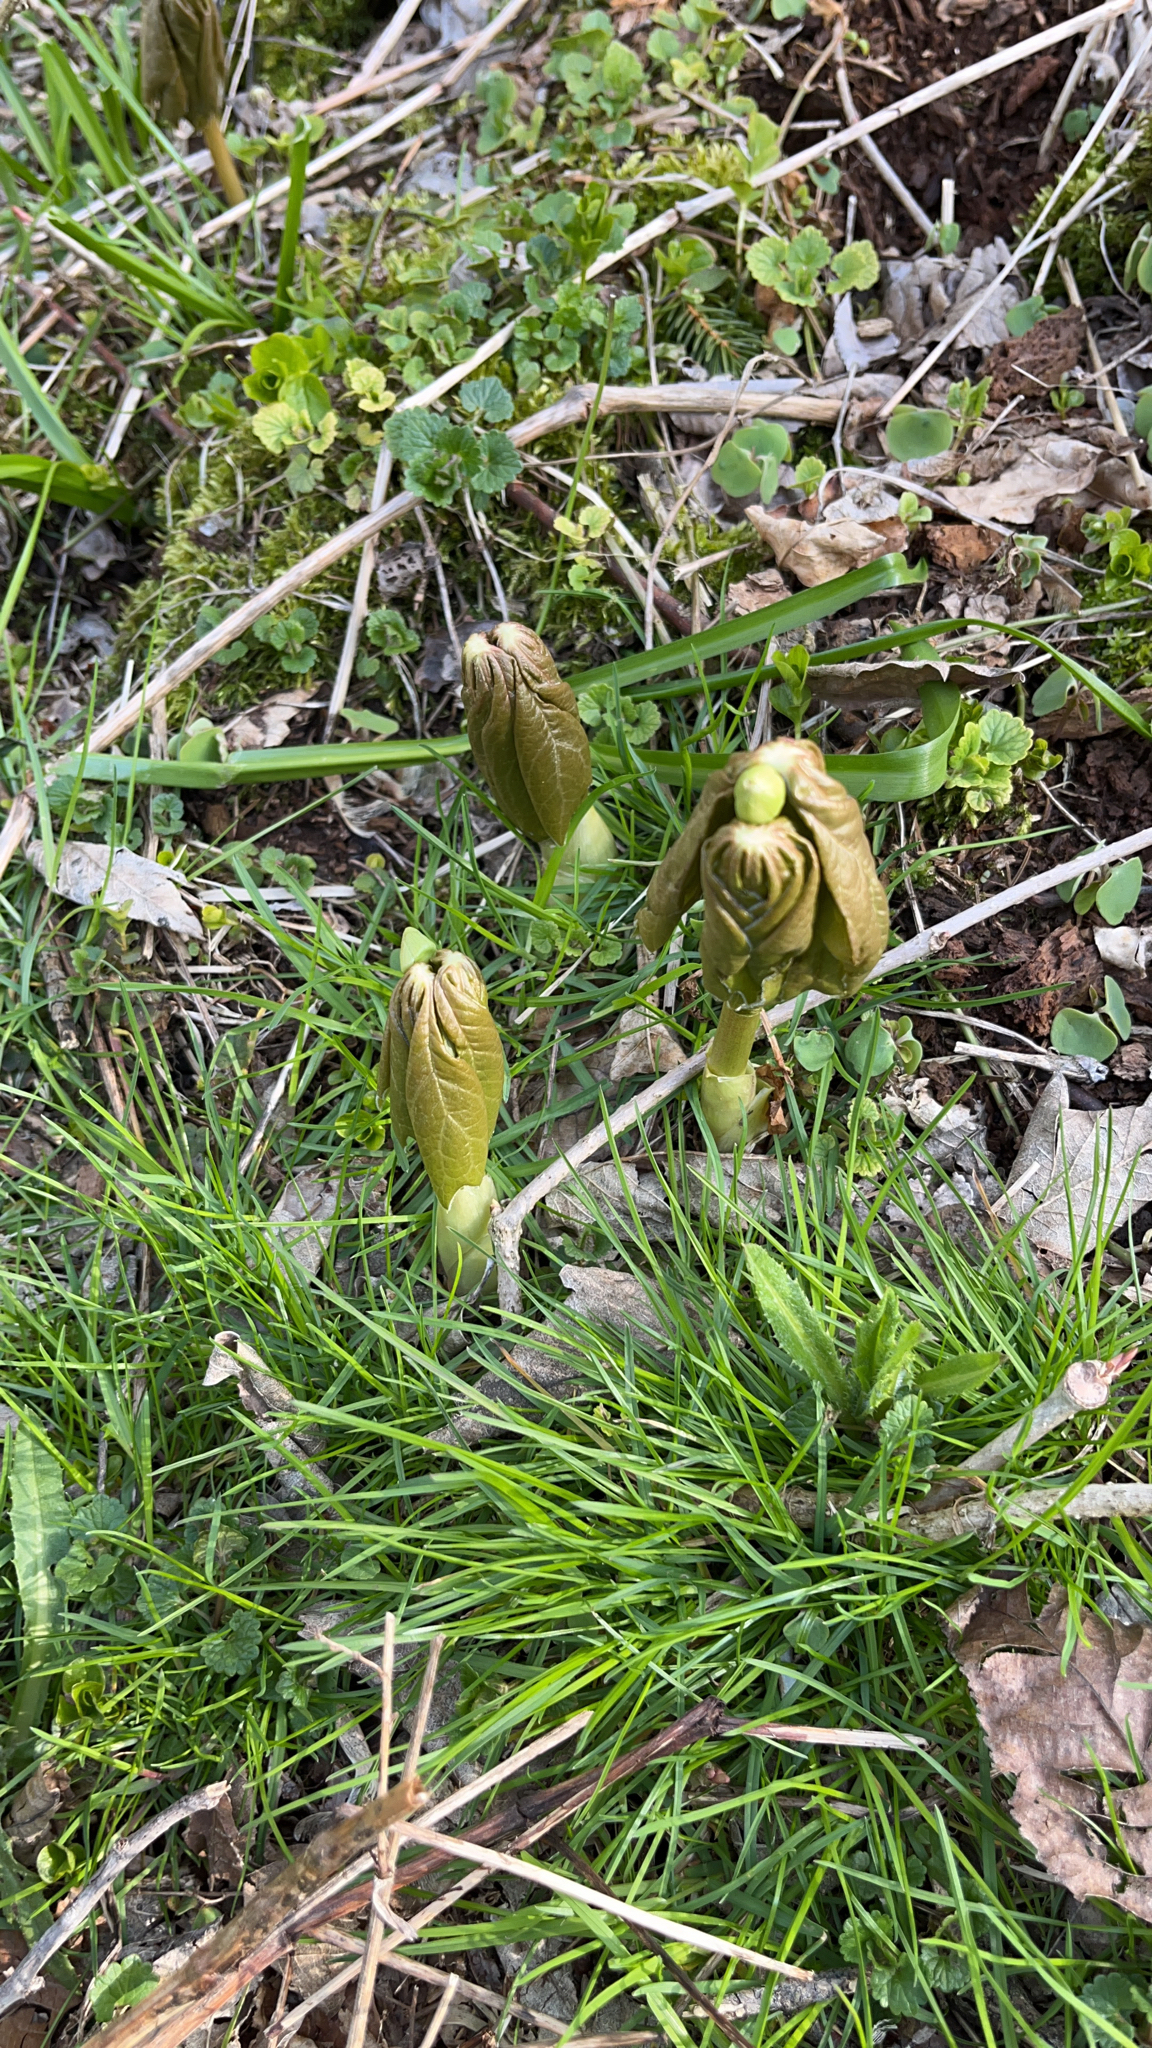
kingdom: Plantae
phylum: Tracheophyta
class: Magnoliopsida
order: Ranunculales
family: Berberidaceae
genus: Podophyllum
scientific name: Podophyllum peltatum
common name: Wild mandrake
